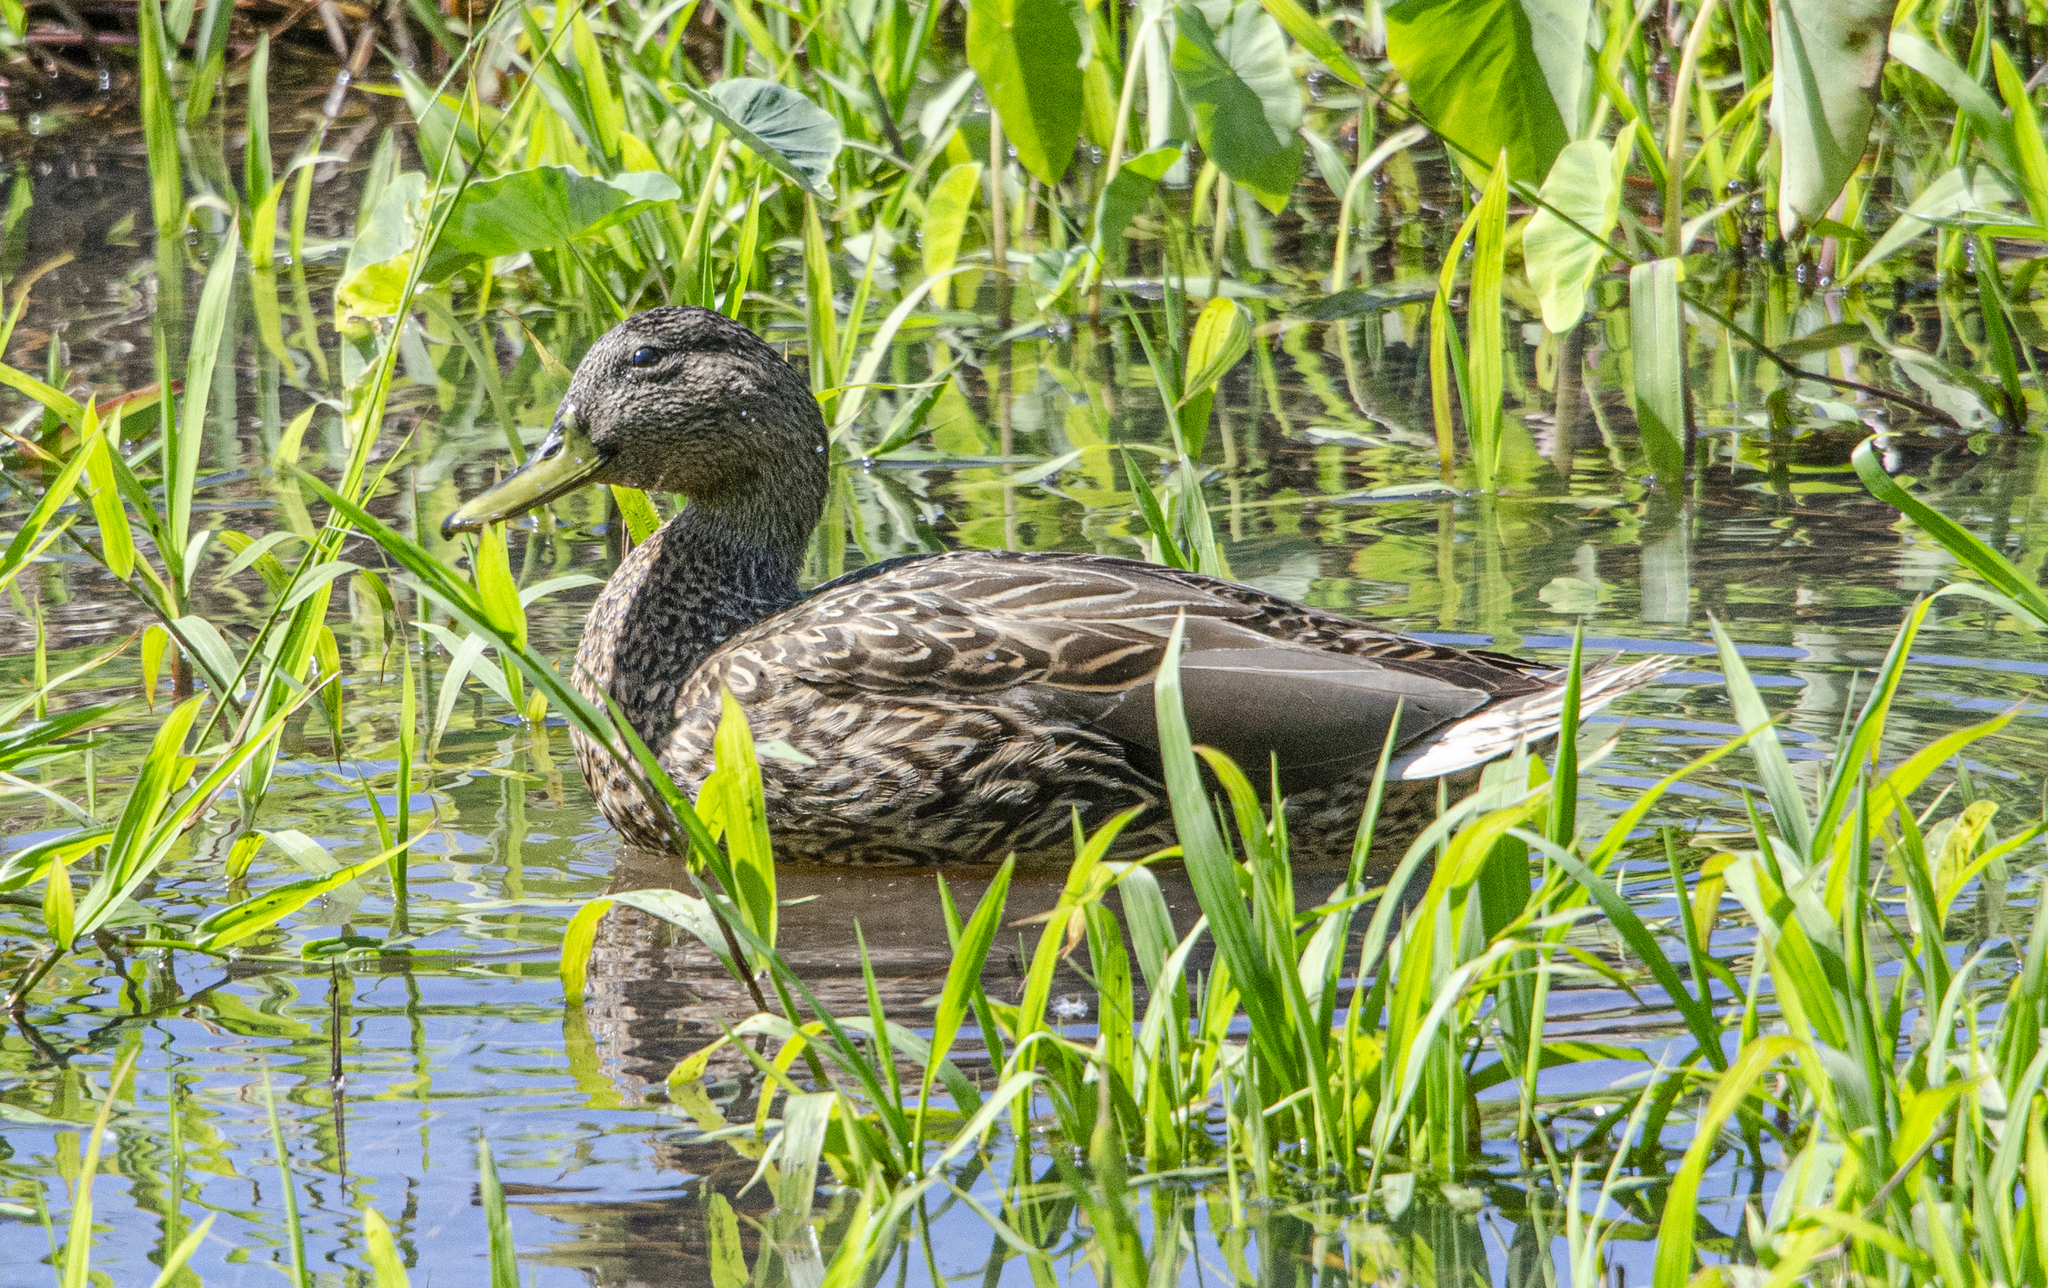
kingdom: Animalia
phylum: Chordata
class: Aves
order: Anseriformes
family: Anatidae
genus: Anas
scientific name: Anas wyvilliana
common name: Hawaiian duck
